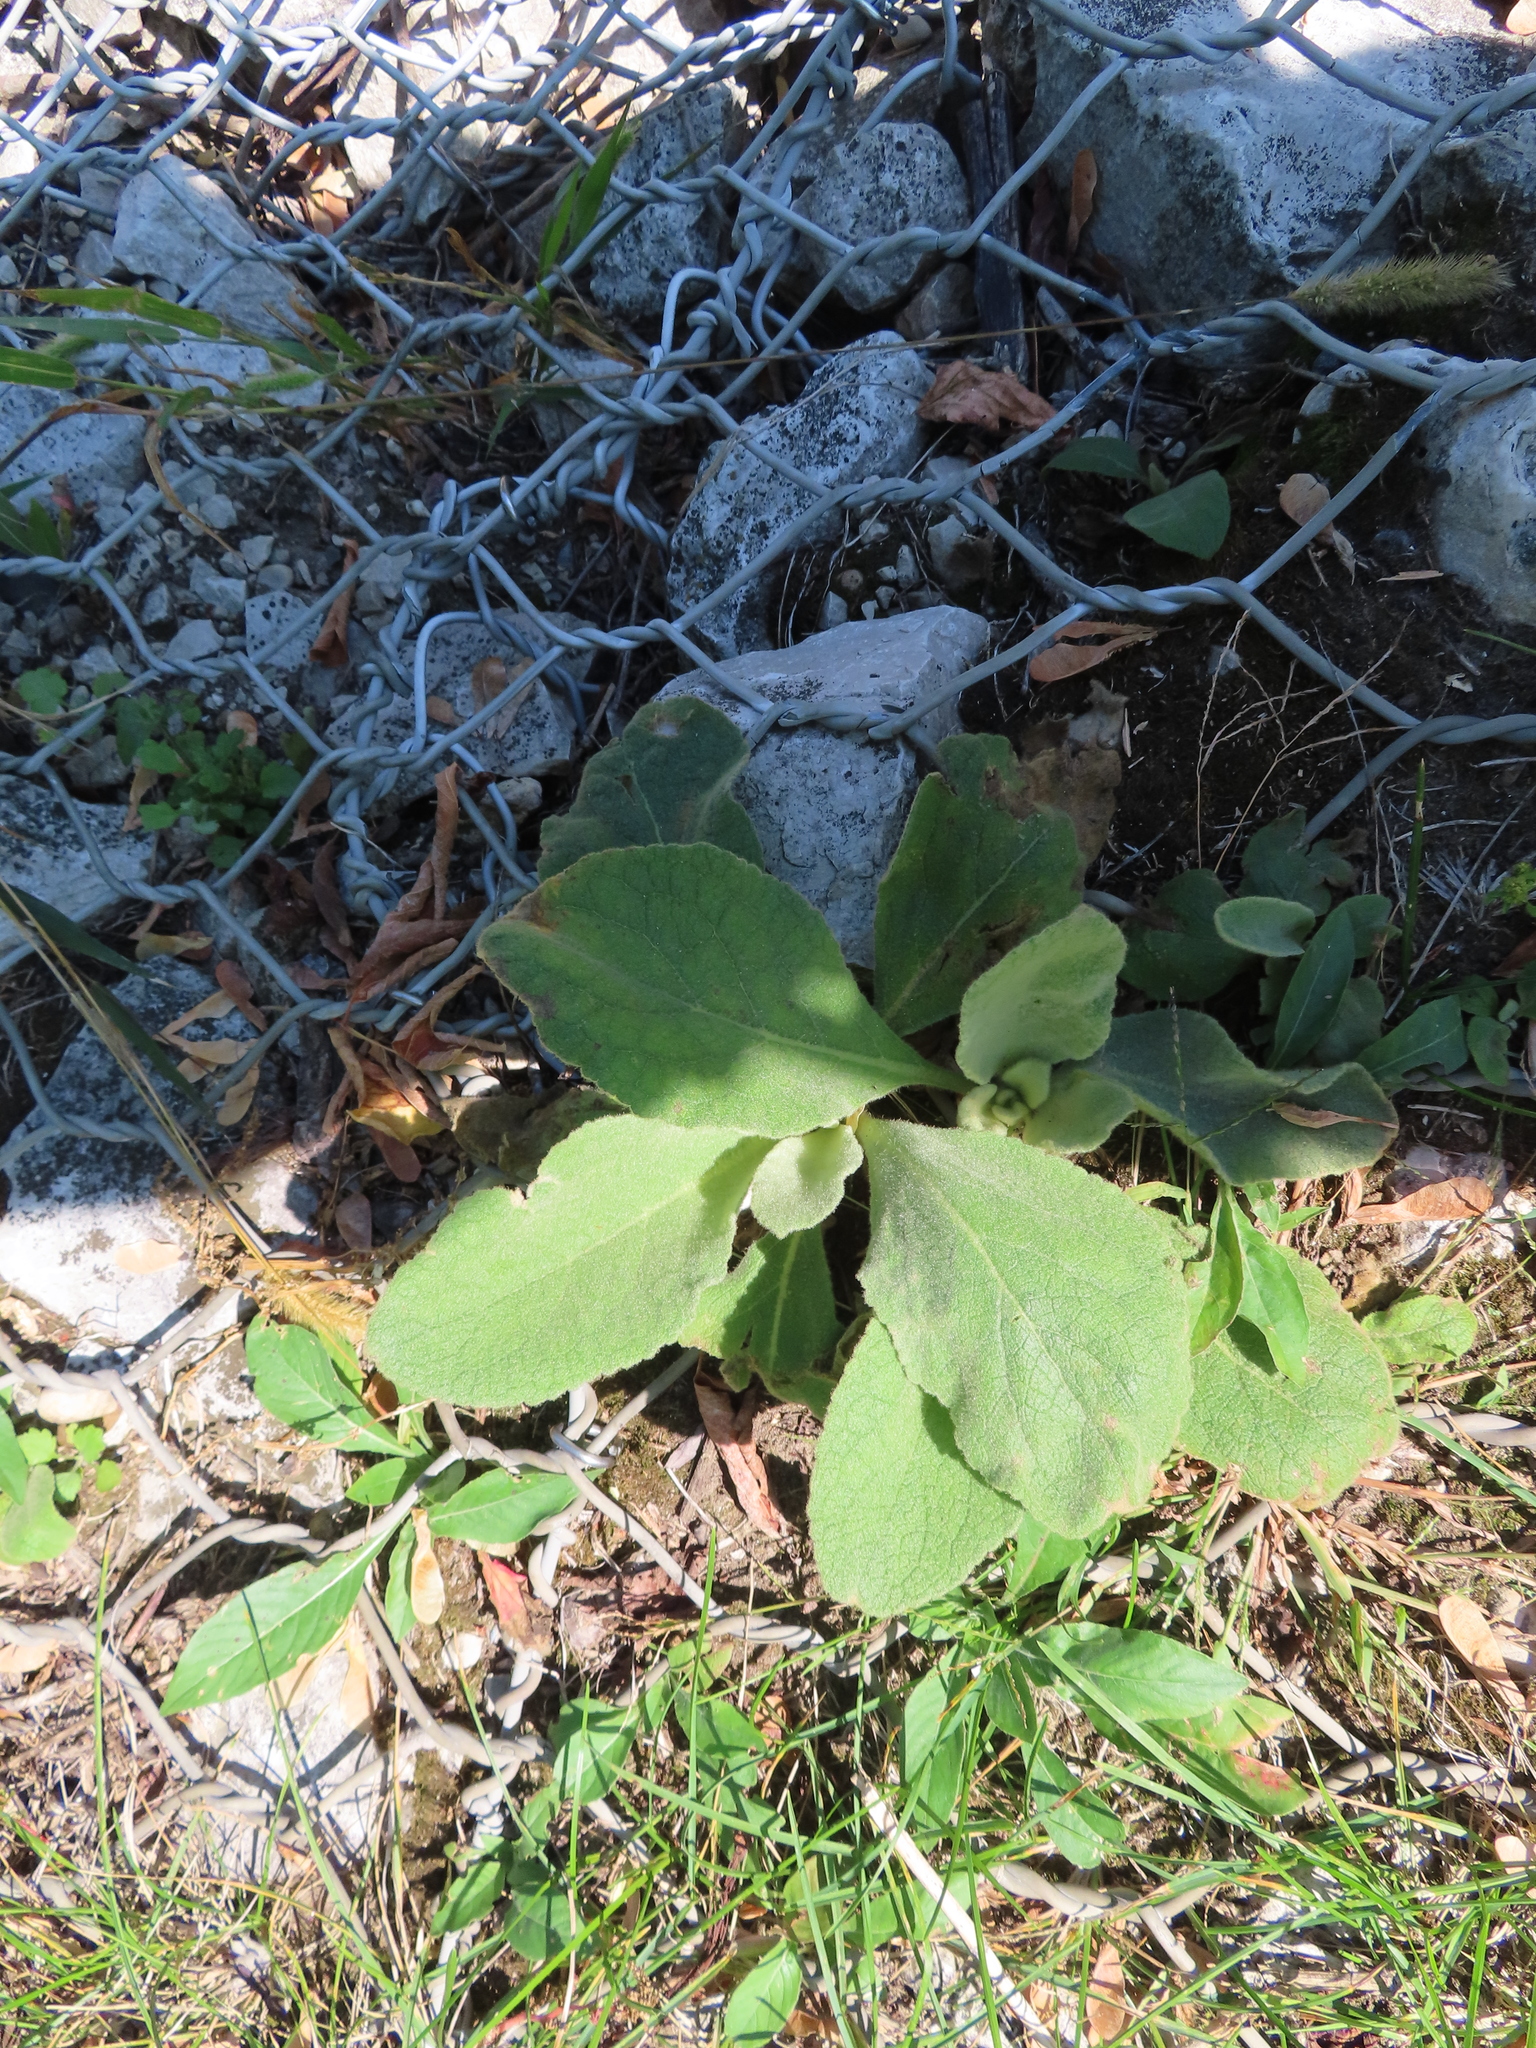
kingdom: Plantae
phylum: Tracheophyta
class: Magnoliopsida
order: Lamiales
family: Scrophulariaceae
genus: Verbascum
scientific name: Verbascum thapsus
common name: Common mullein
